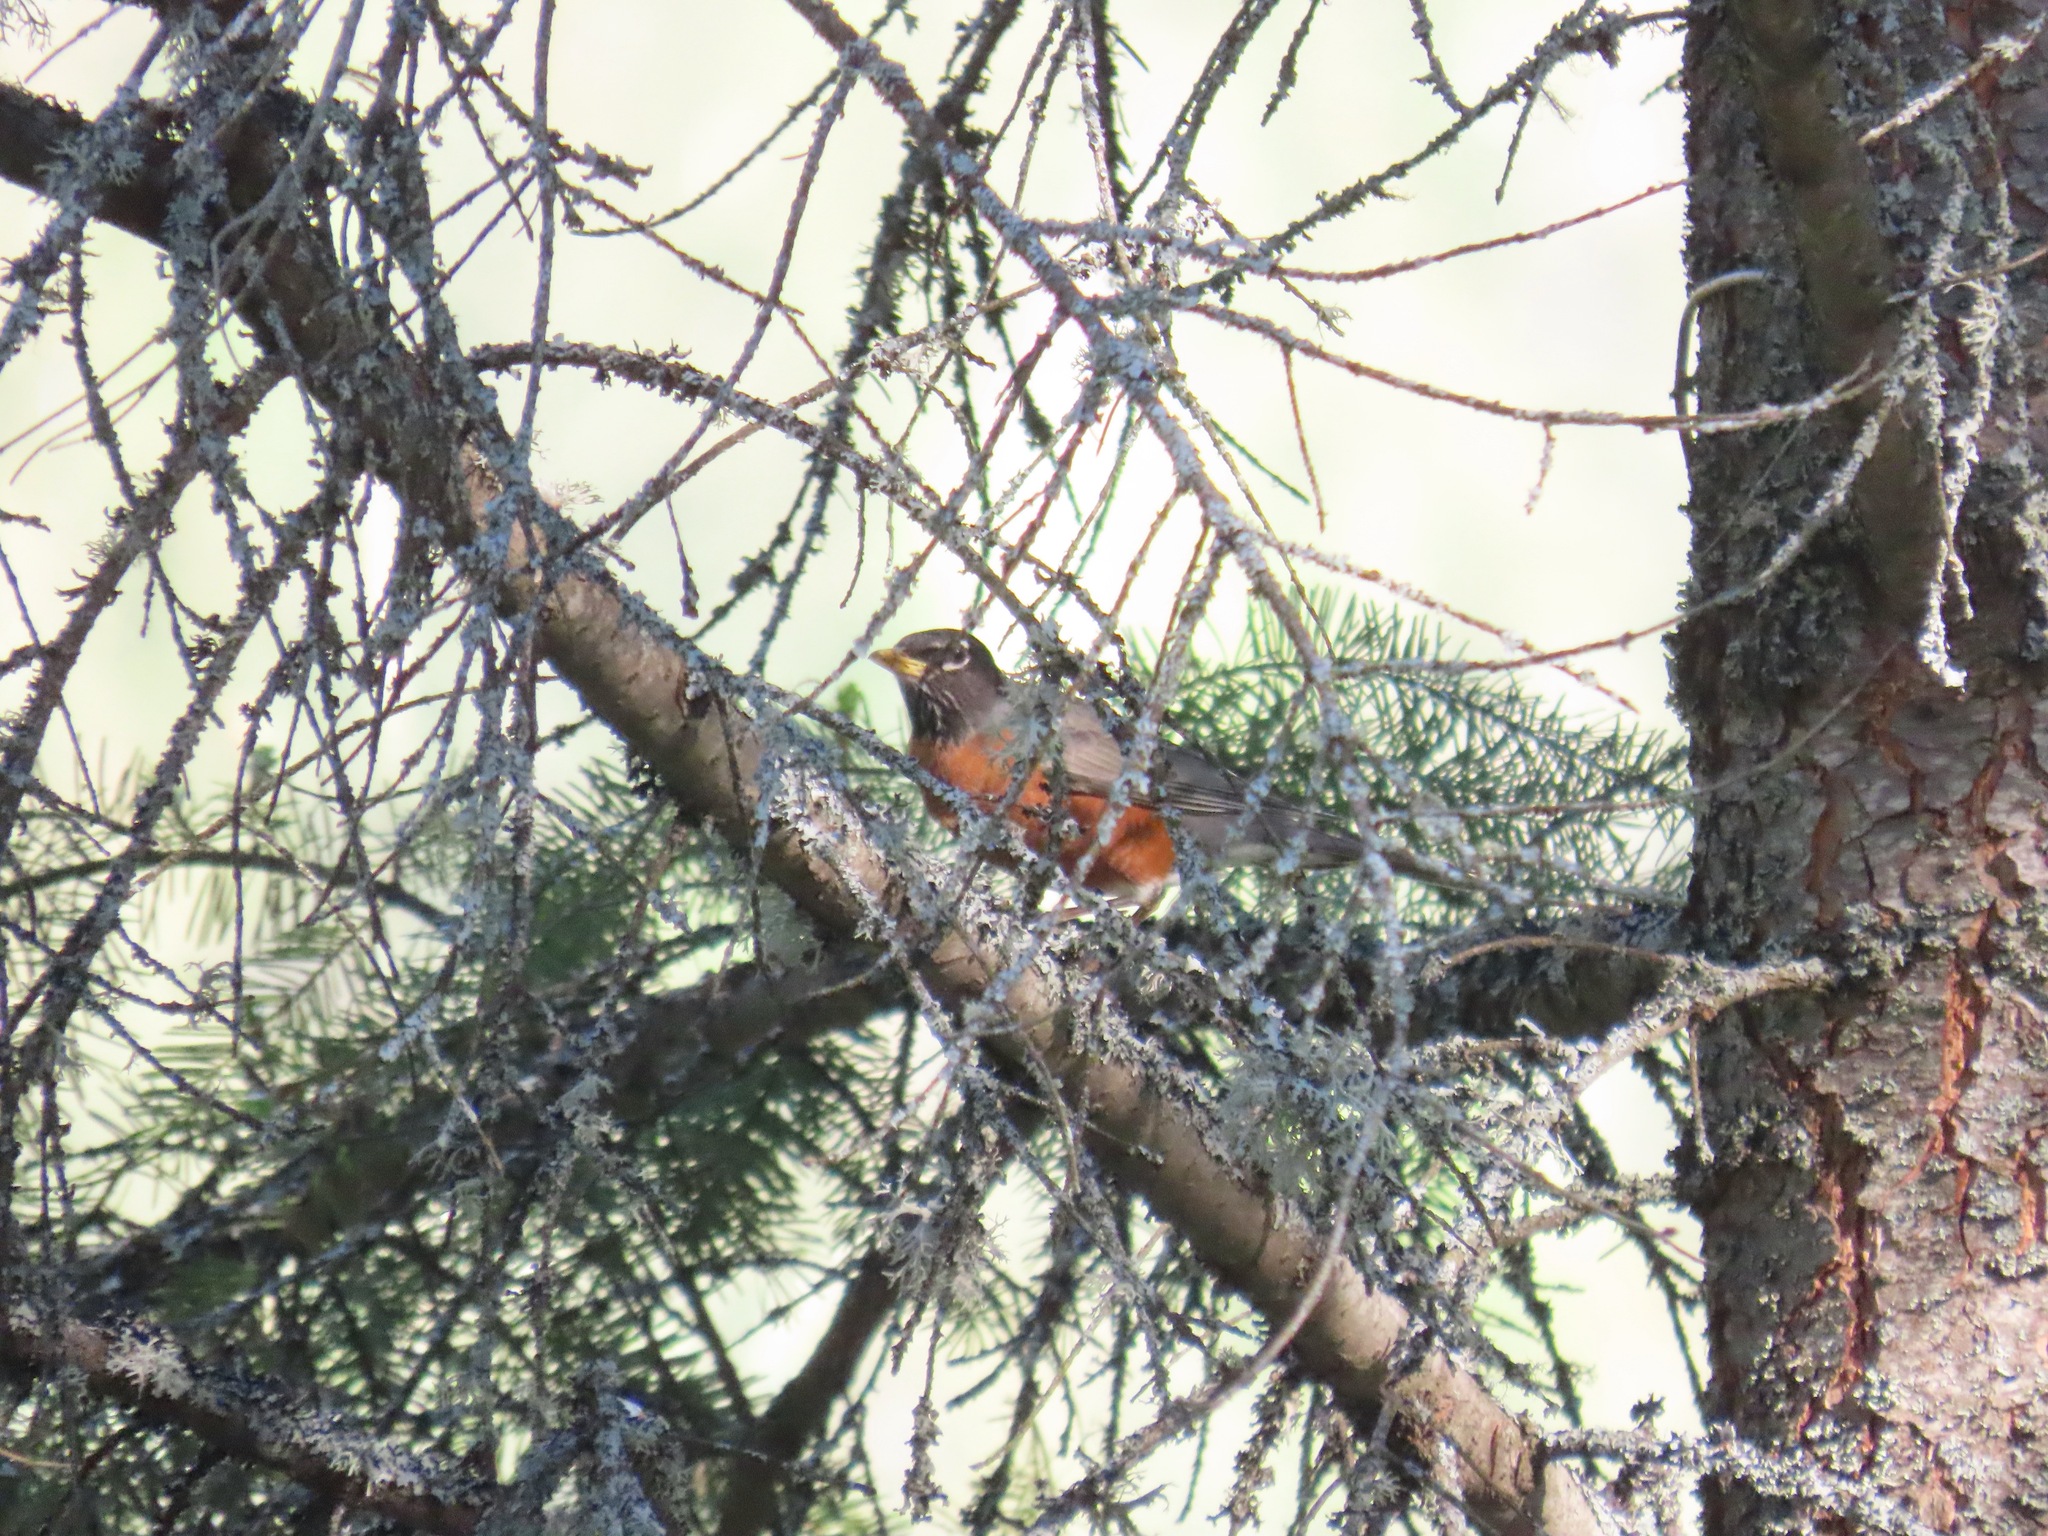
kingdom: Animalia
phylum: Chordata
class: Aves
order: Passeriformes
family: Turdidae
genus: Turdus
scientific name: Turdus migratorius
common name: American robin
